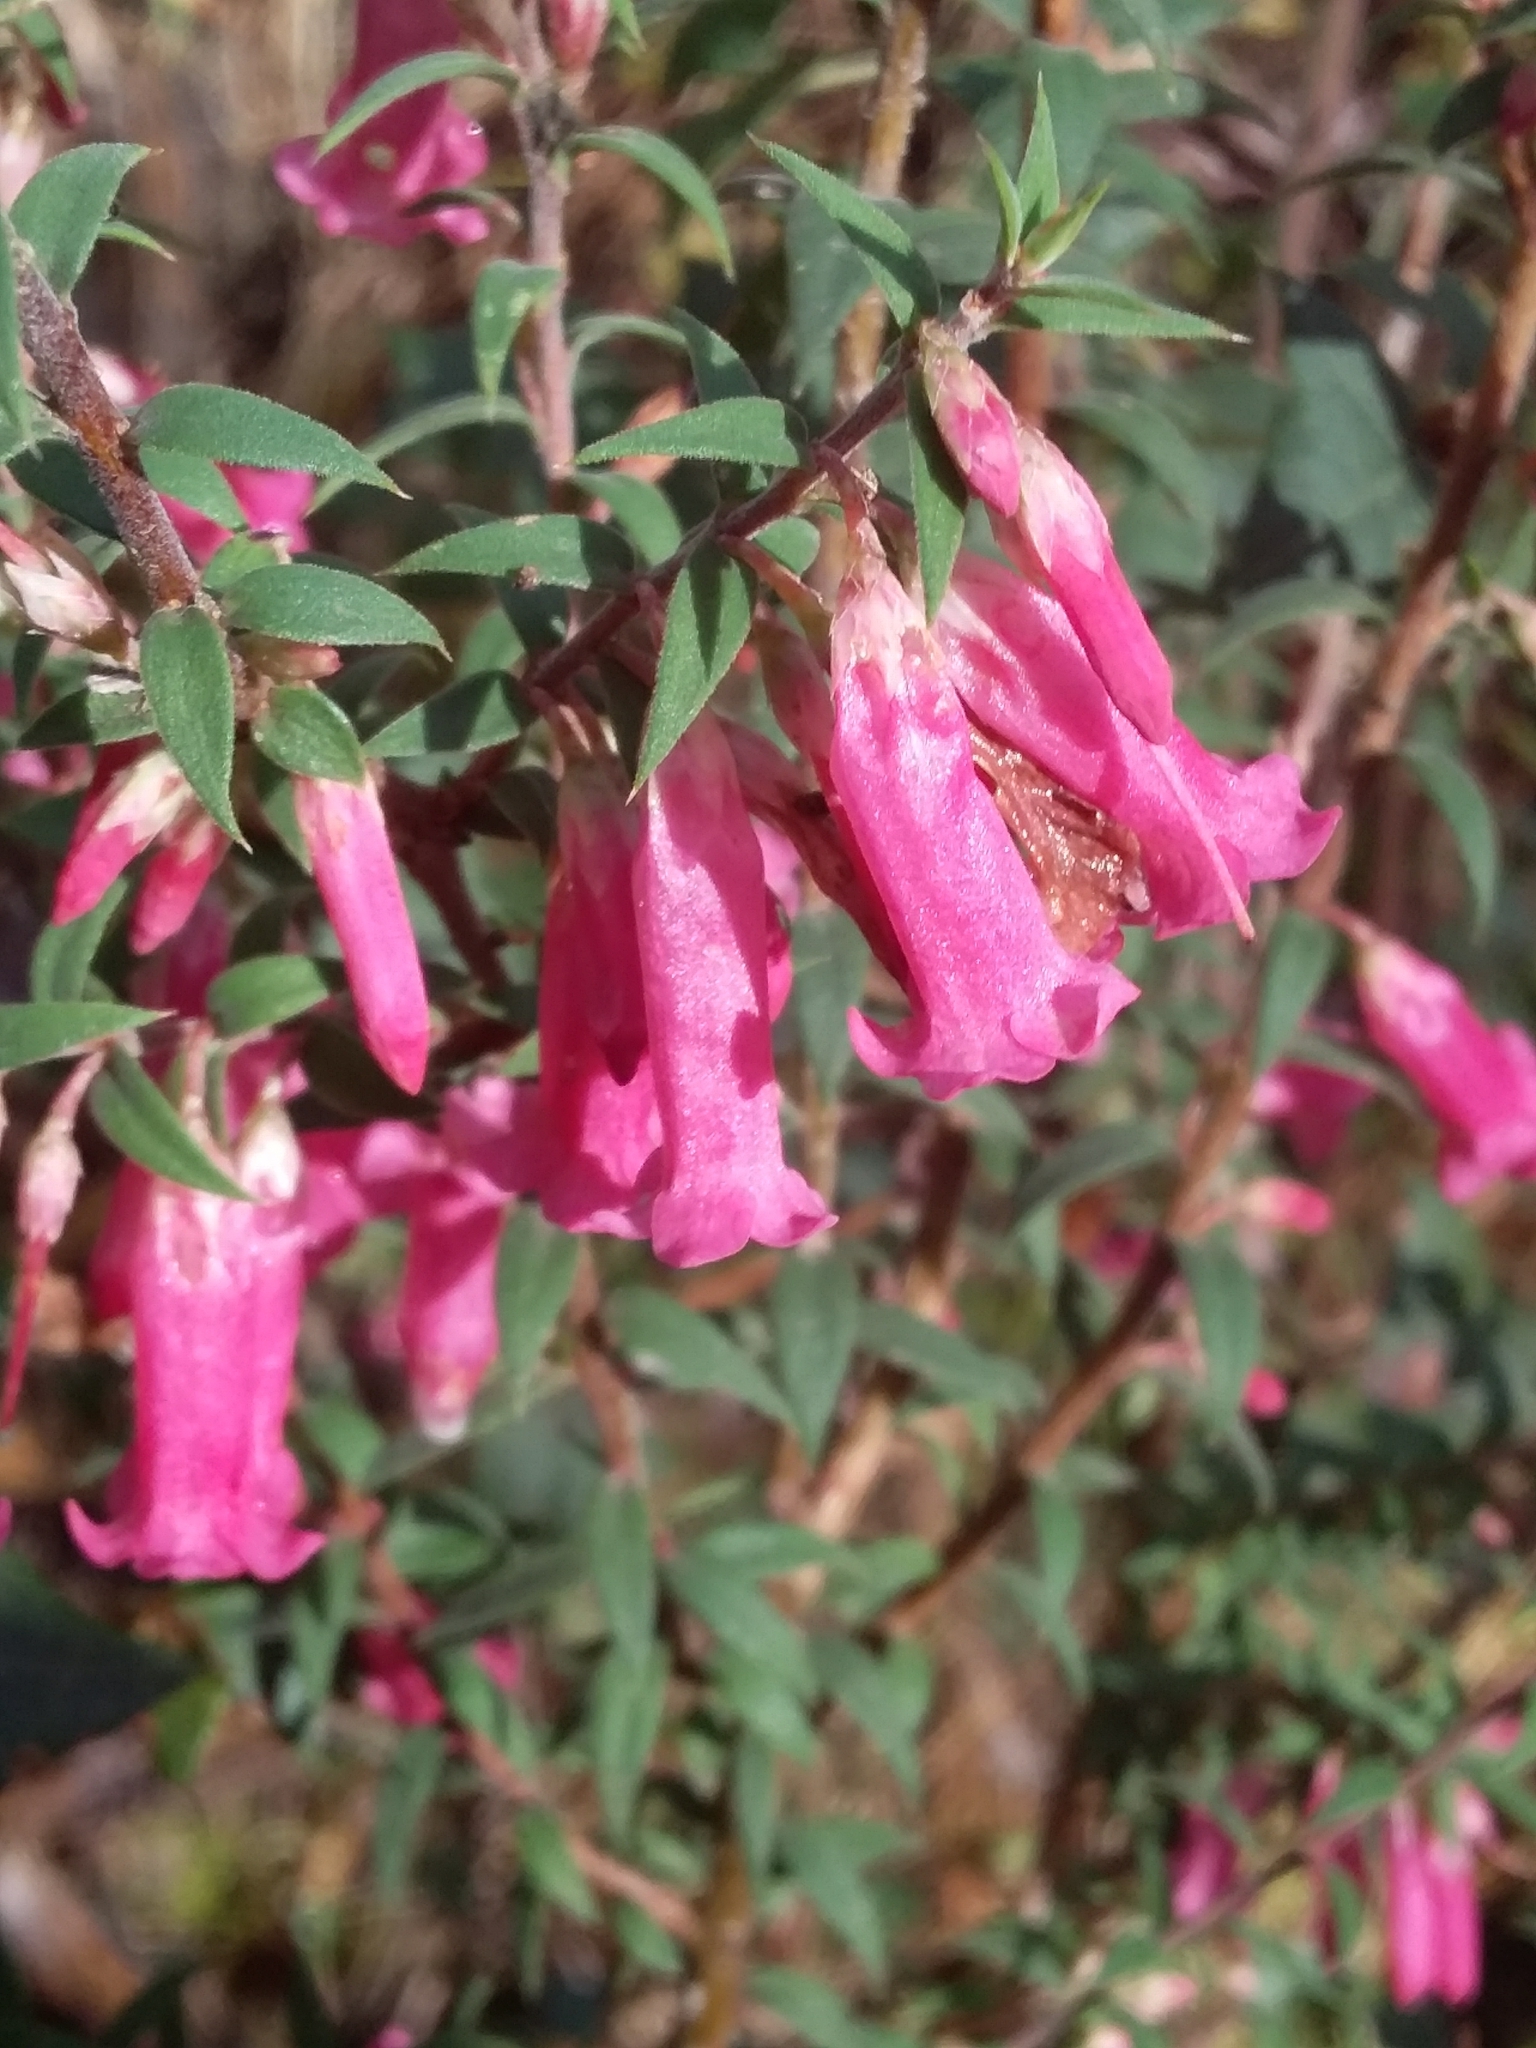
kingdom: Plantae
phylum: Tracheophyta
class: Magnoliopsida
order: Ericales
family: Ericaceae
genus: Epacris
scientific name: Epacris impressa
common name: Common-heath
